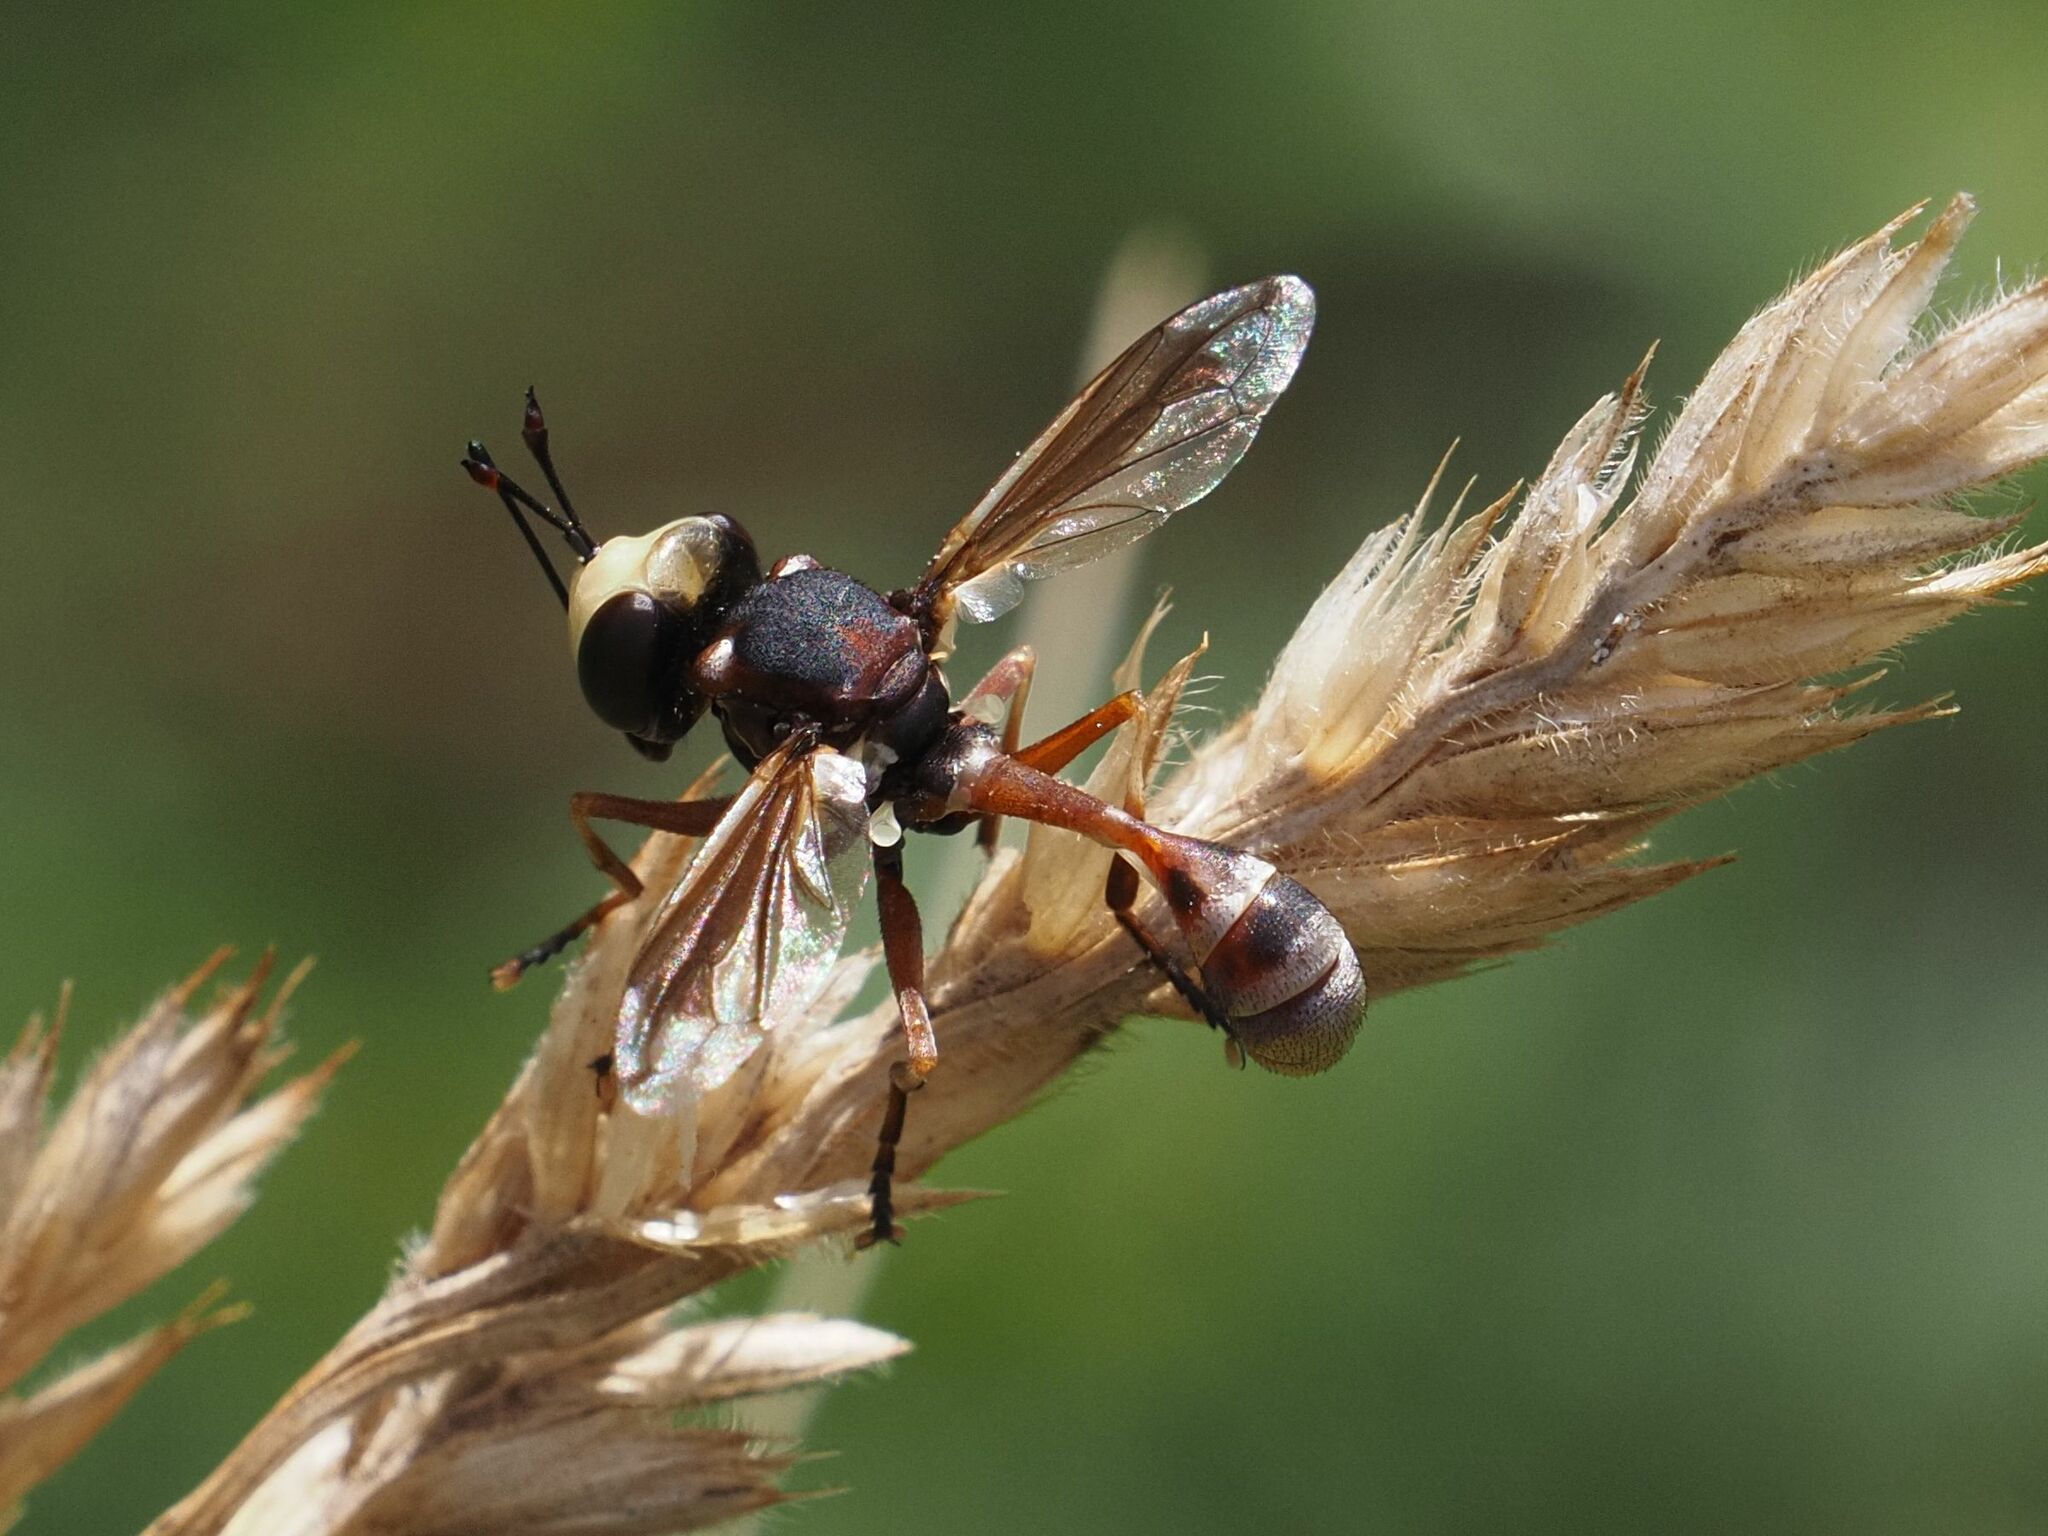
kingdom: Animalia
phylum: Arthropoda
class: Insecta
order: Diptera
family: Conopidae
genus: Physocephala
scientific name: Physocephala vittata
